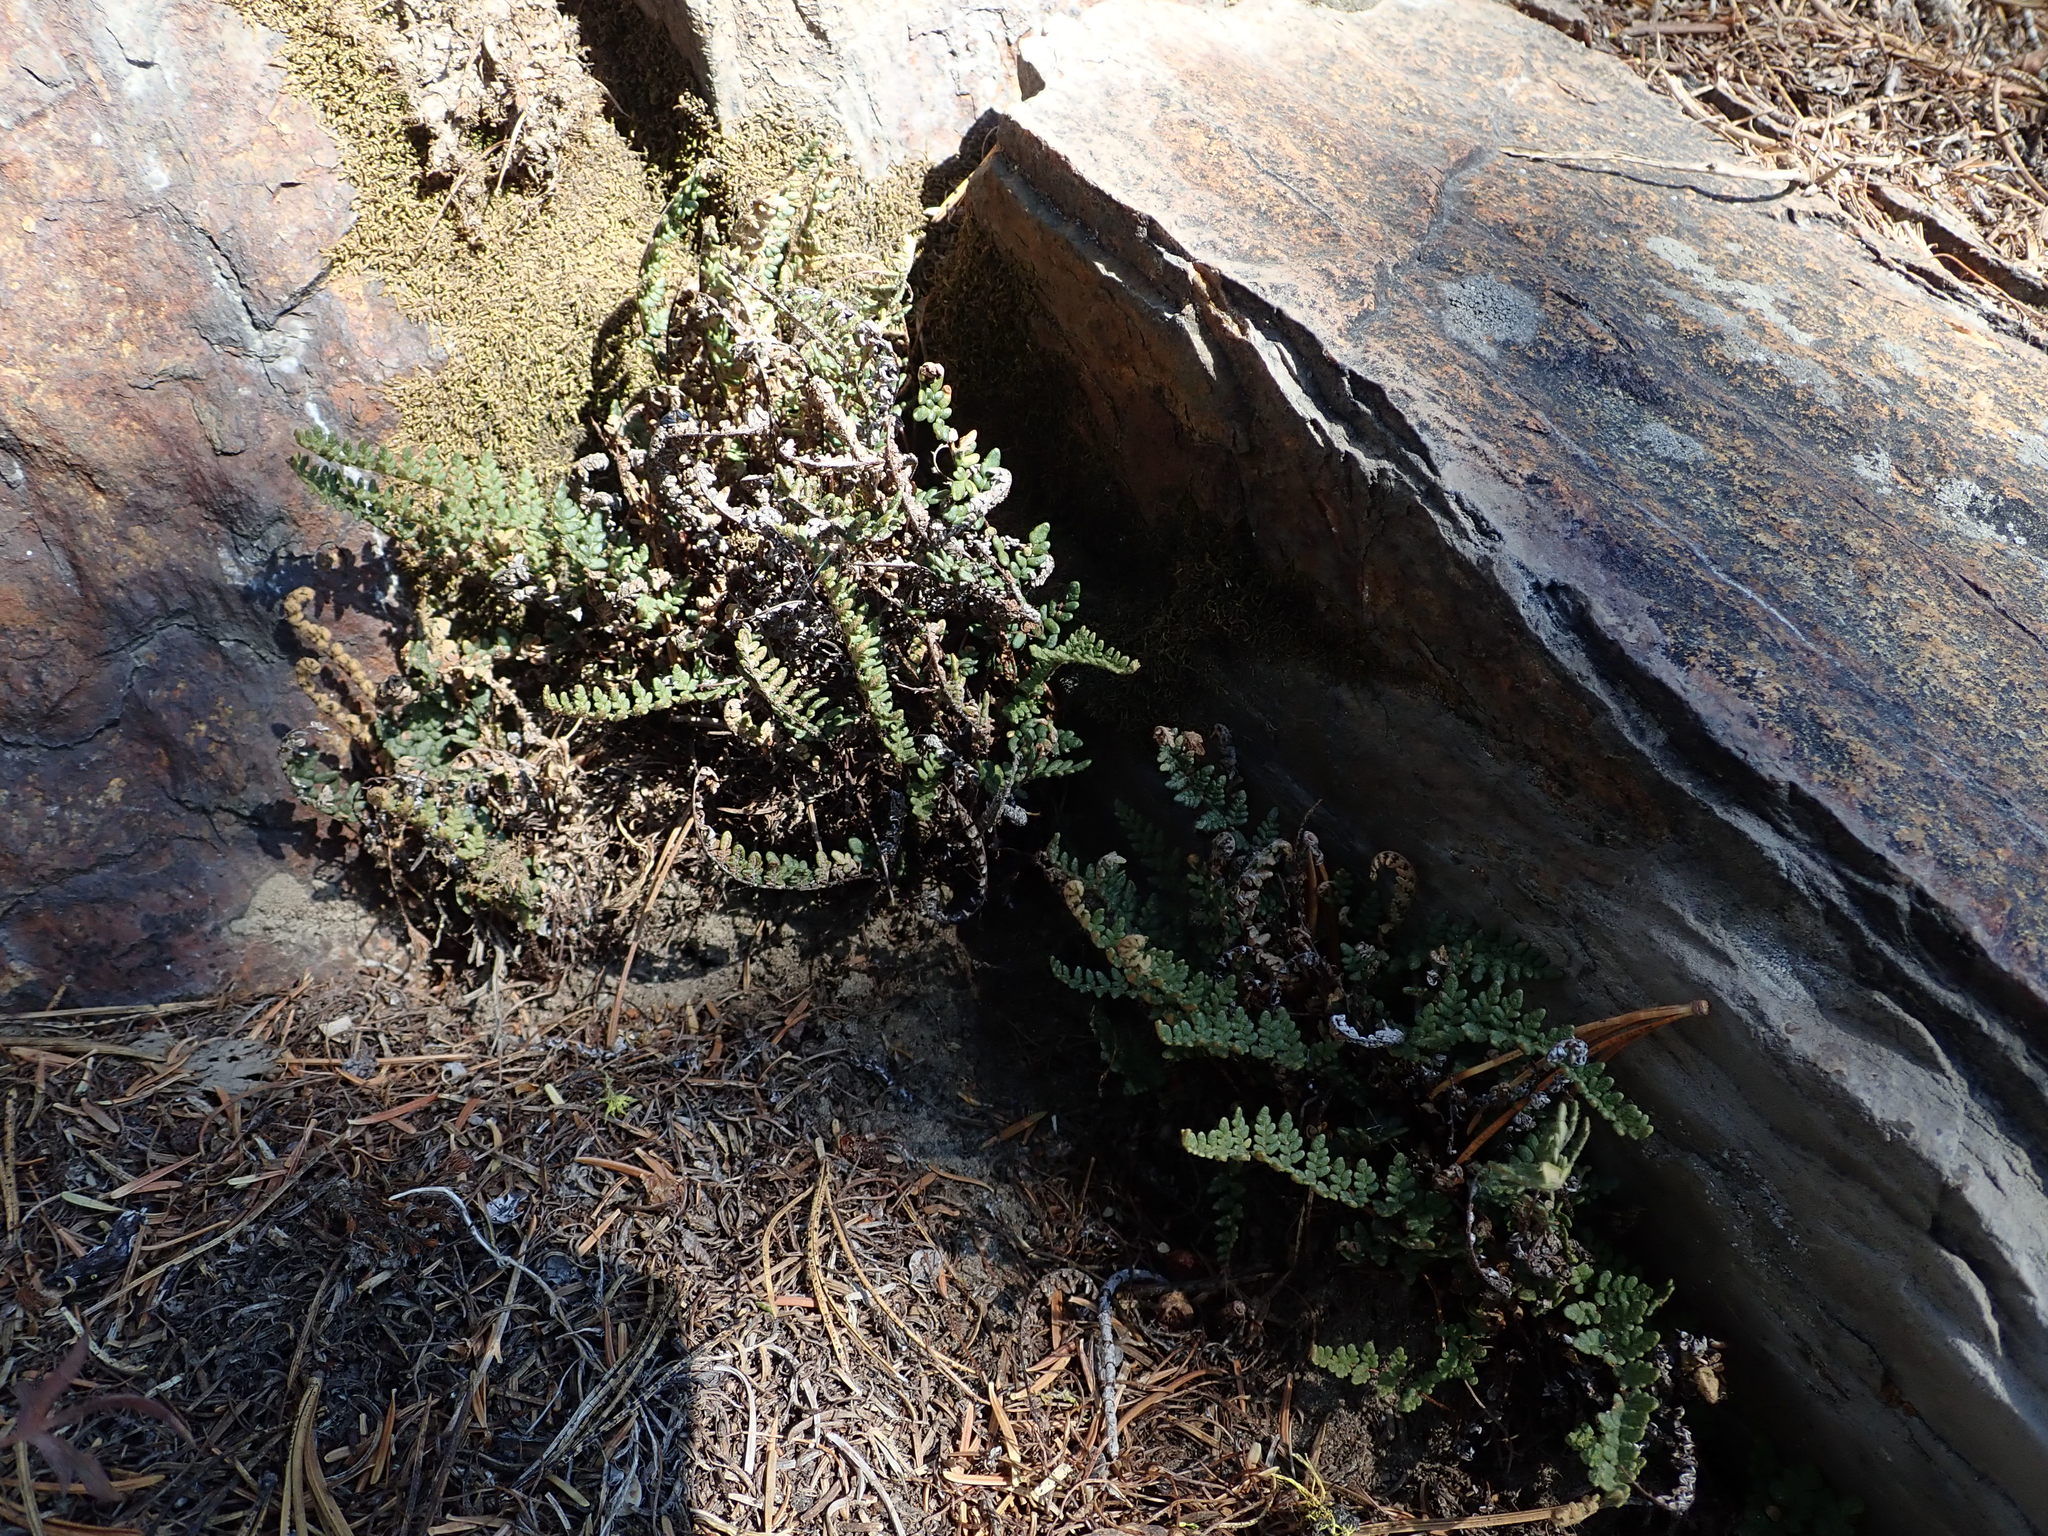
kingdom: Plantae
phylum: Tracheophyta
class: Polypodiopsida
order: Polypodiales
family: Pteridaceae
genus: Myriopteris
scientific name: Myriopteris gracillima
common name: Lace fern
